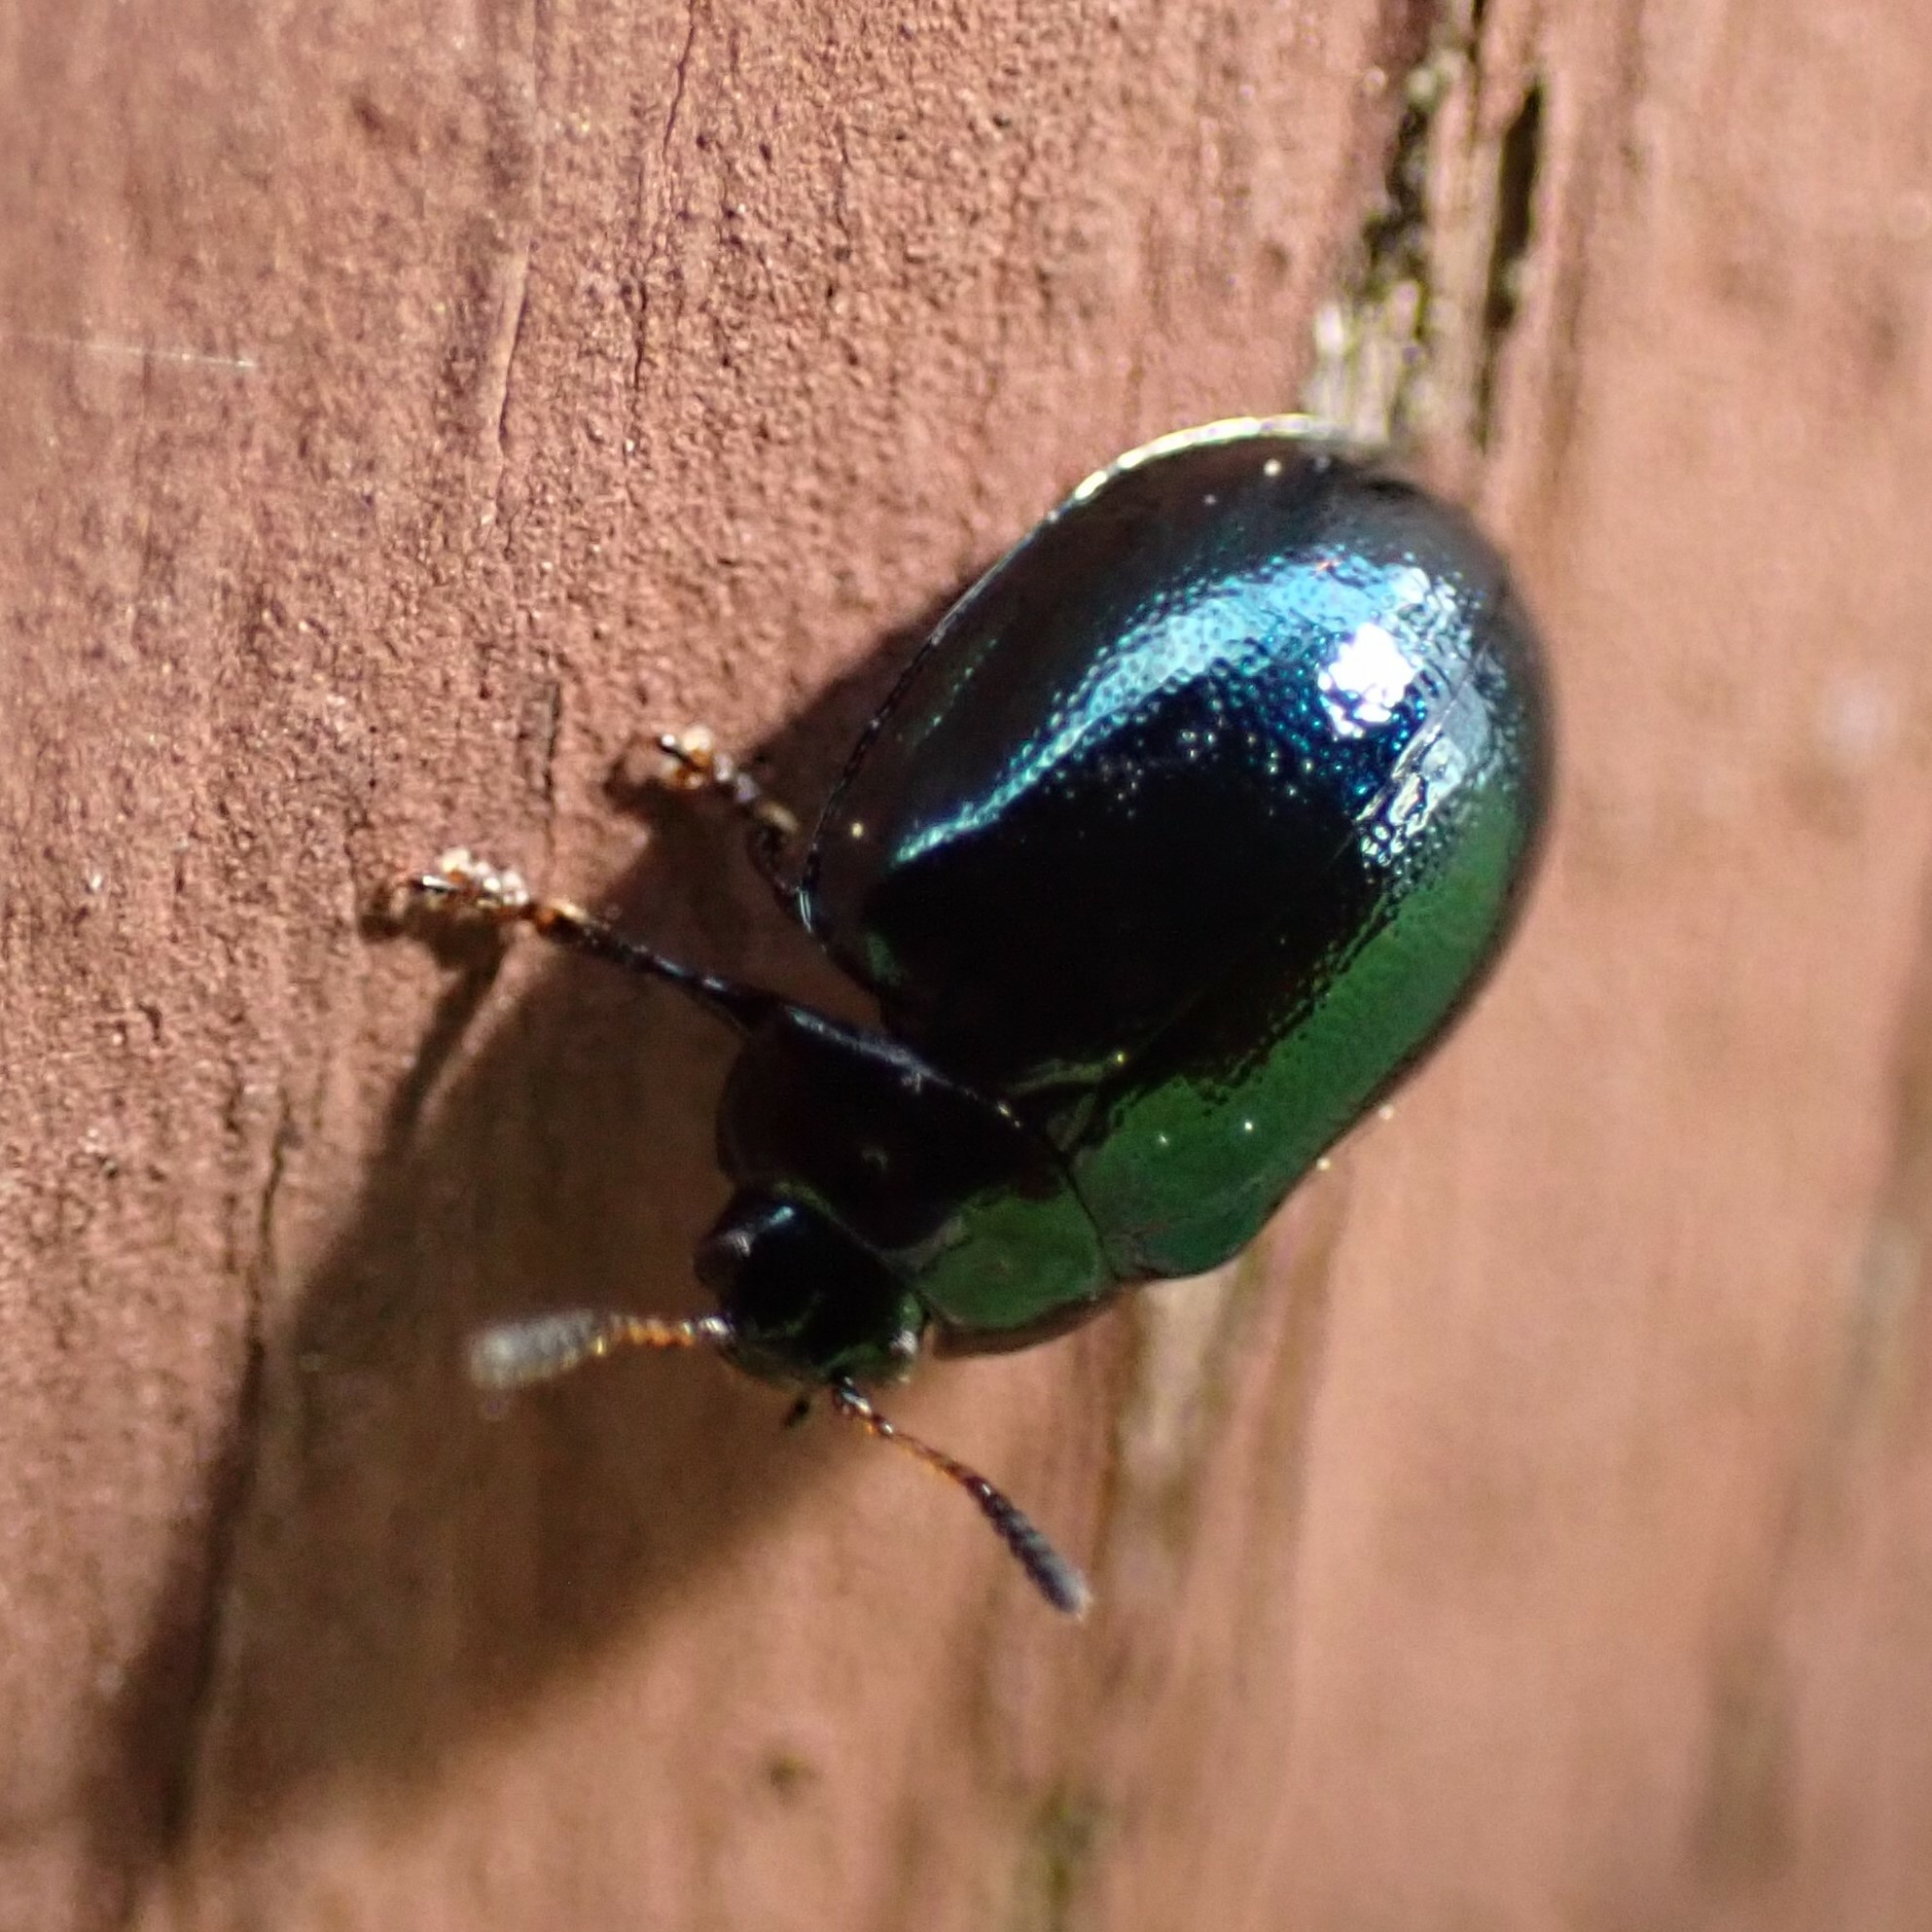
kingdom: Animalia
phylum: Arthropoda
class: Insecta
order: Coleoptera
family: Chrysomelidae
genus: Plagiodera
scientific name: Plagiodera versicolora
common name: Imported willow leaf beetle
